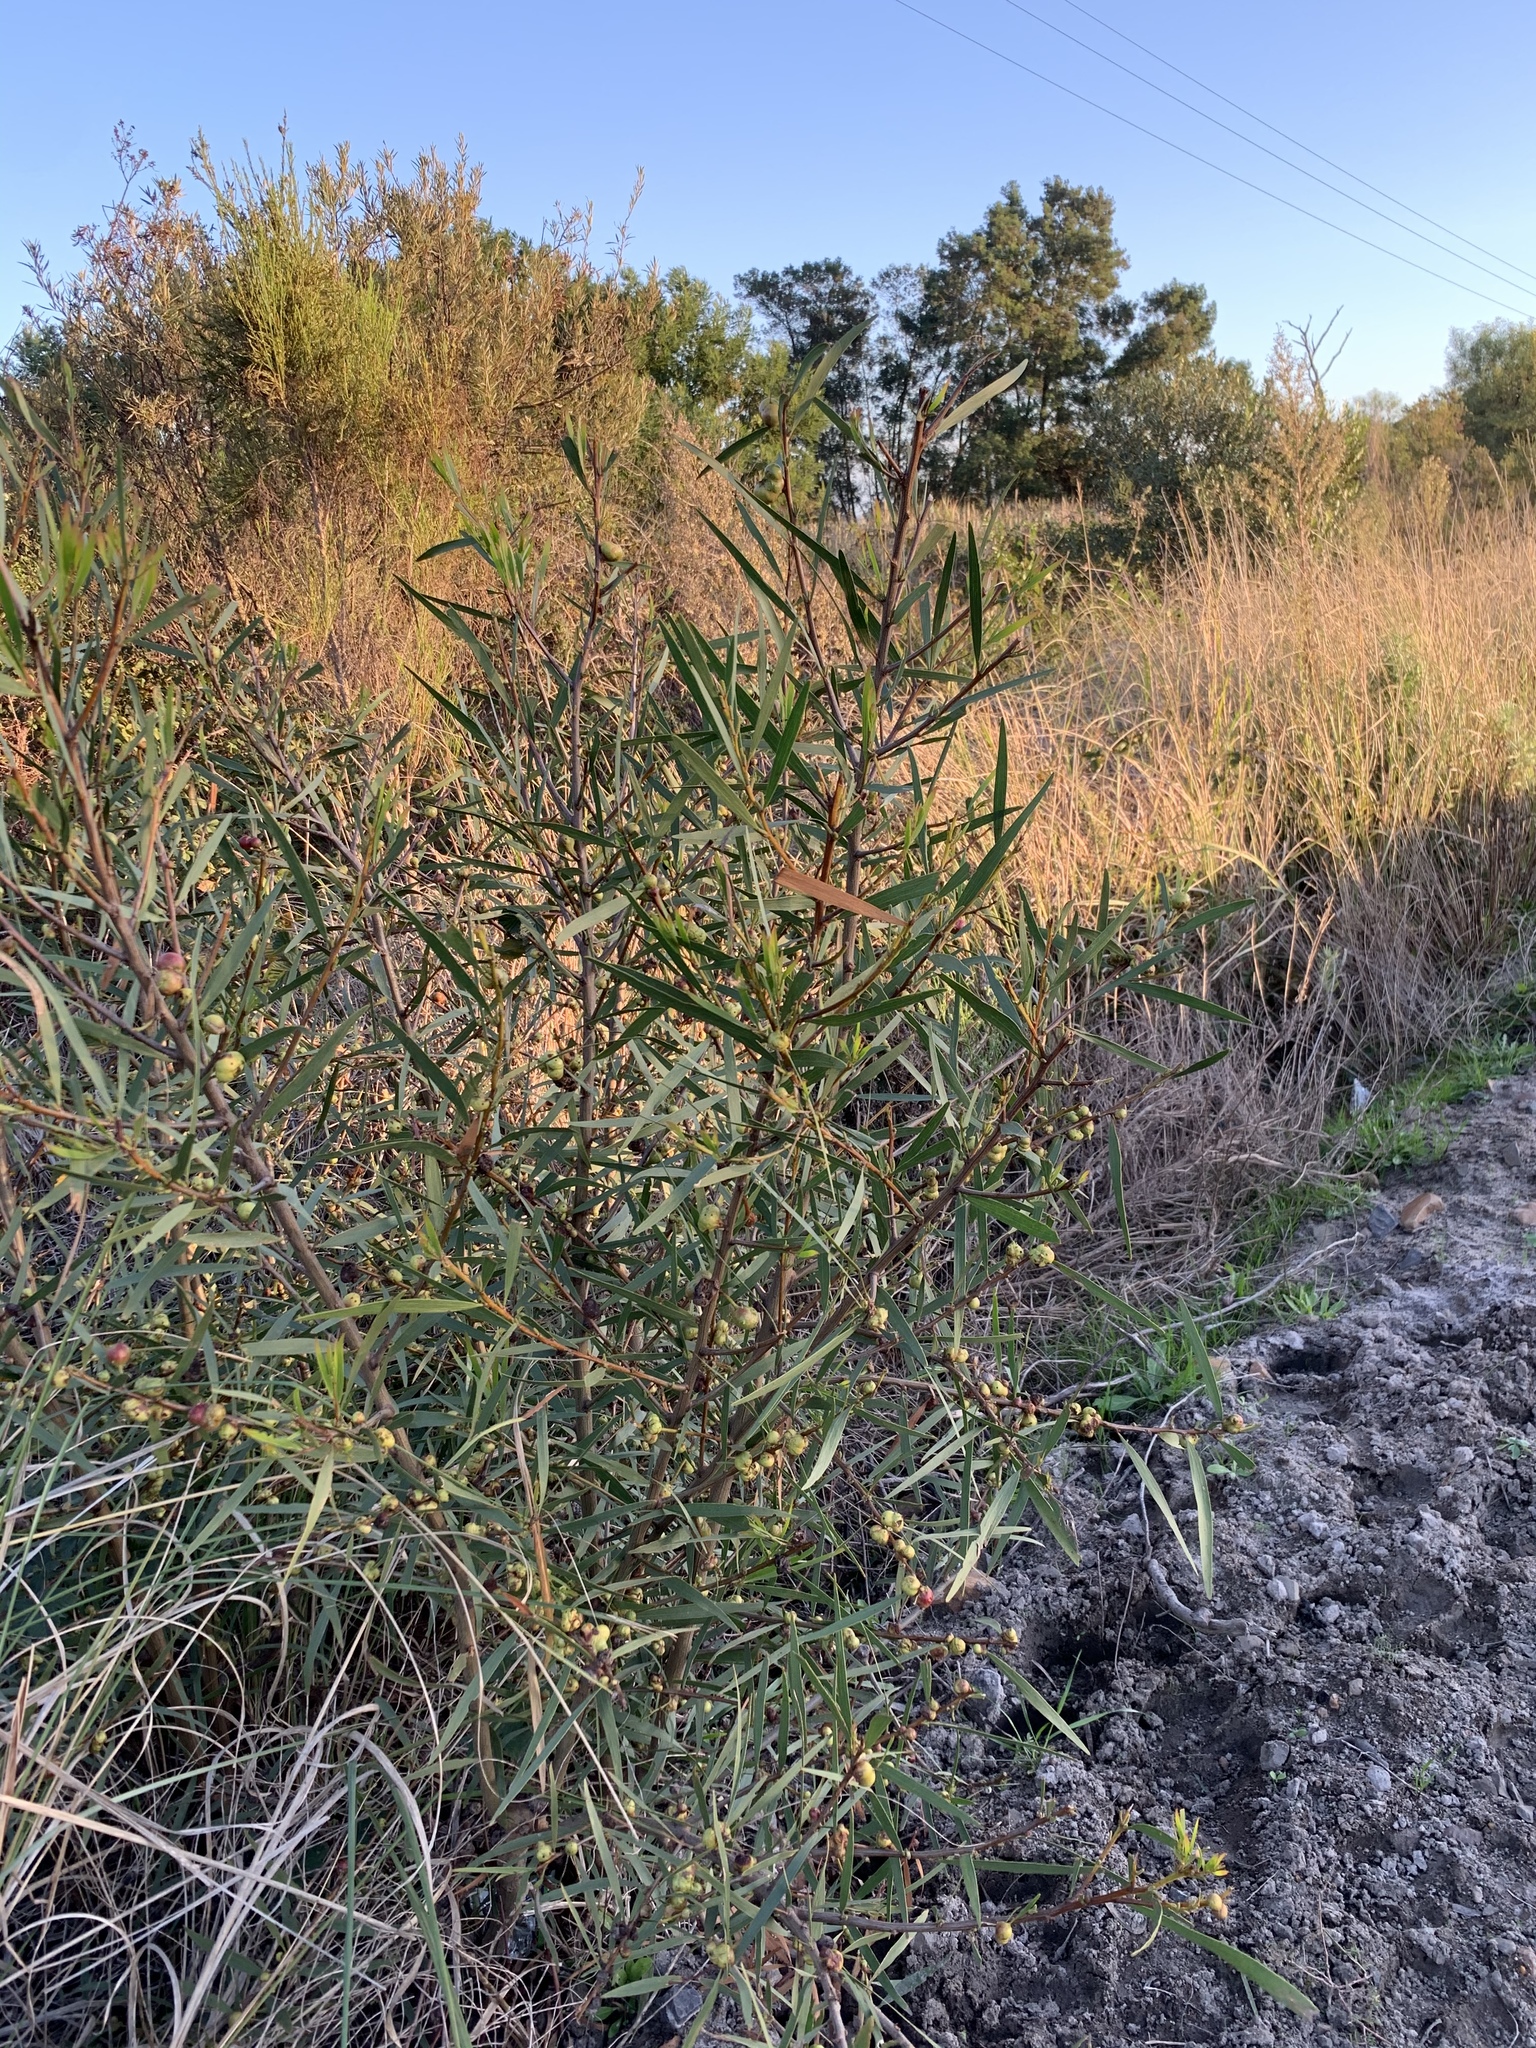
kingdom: Plantae
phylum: Tracheophyta
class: Magnoliopsida
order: Fabales
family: Fabaceae
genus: Acacia
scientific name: Acacia longifolia
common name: Sydney golden wattle
